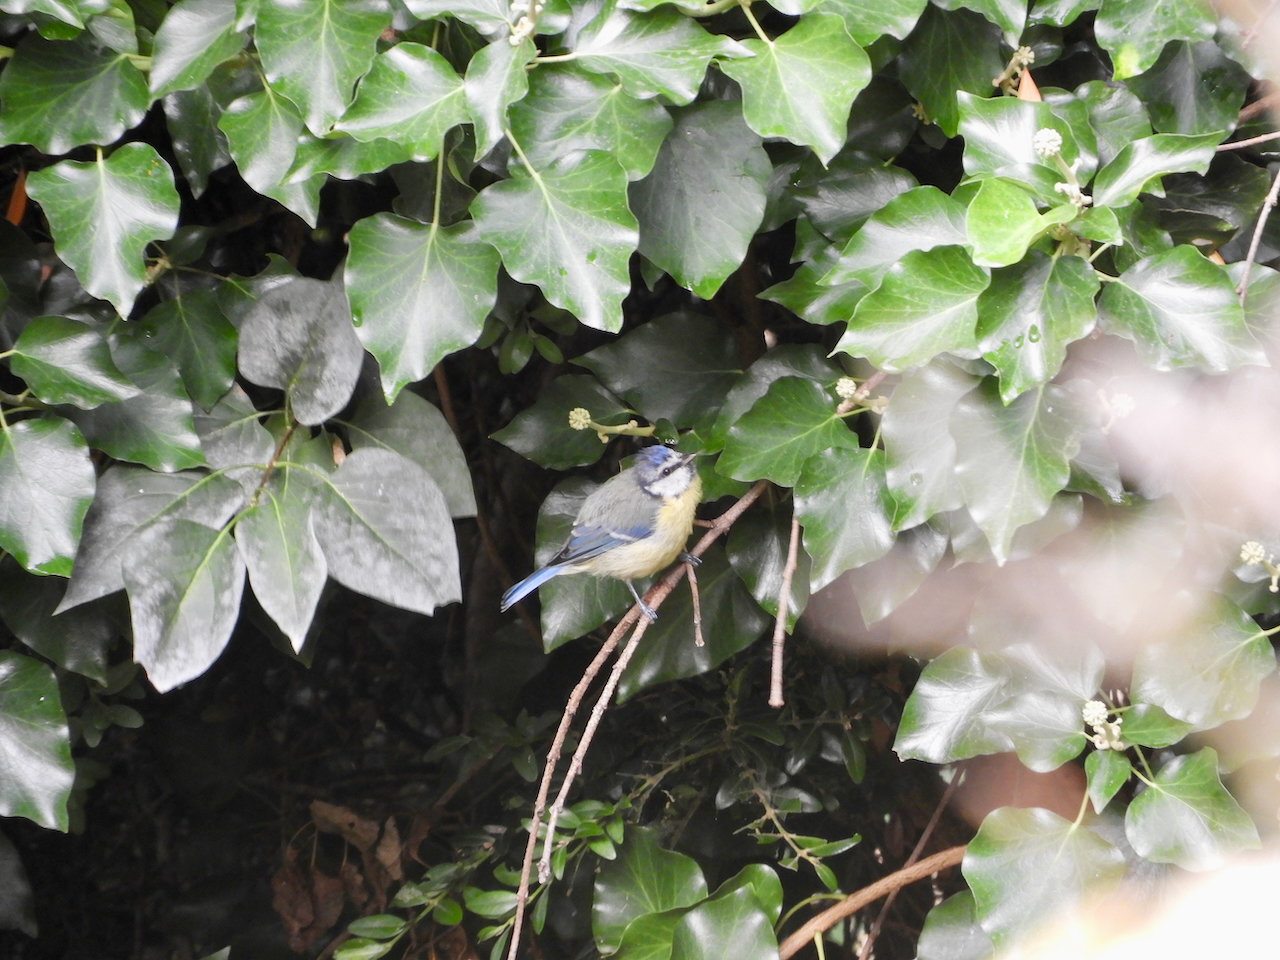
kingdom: Animalia
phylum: Chordata
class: Aves
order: Passeriformes
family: Paridae
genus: Cyanistes
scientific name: Cyanistes caeruleus
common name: Eurasian blue tit
